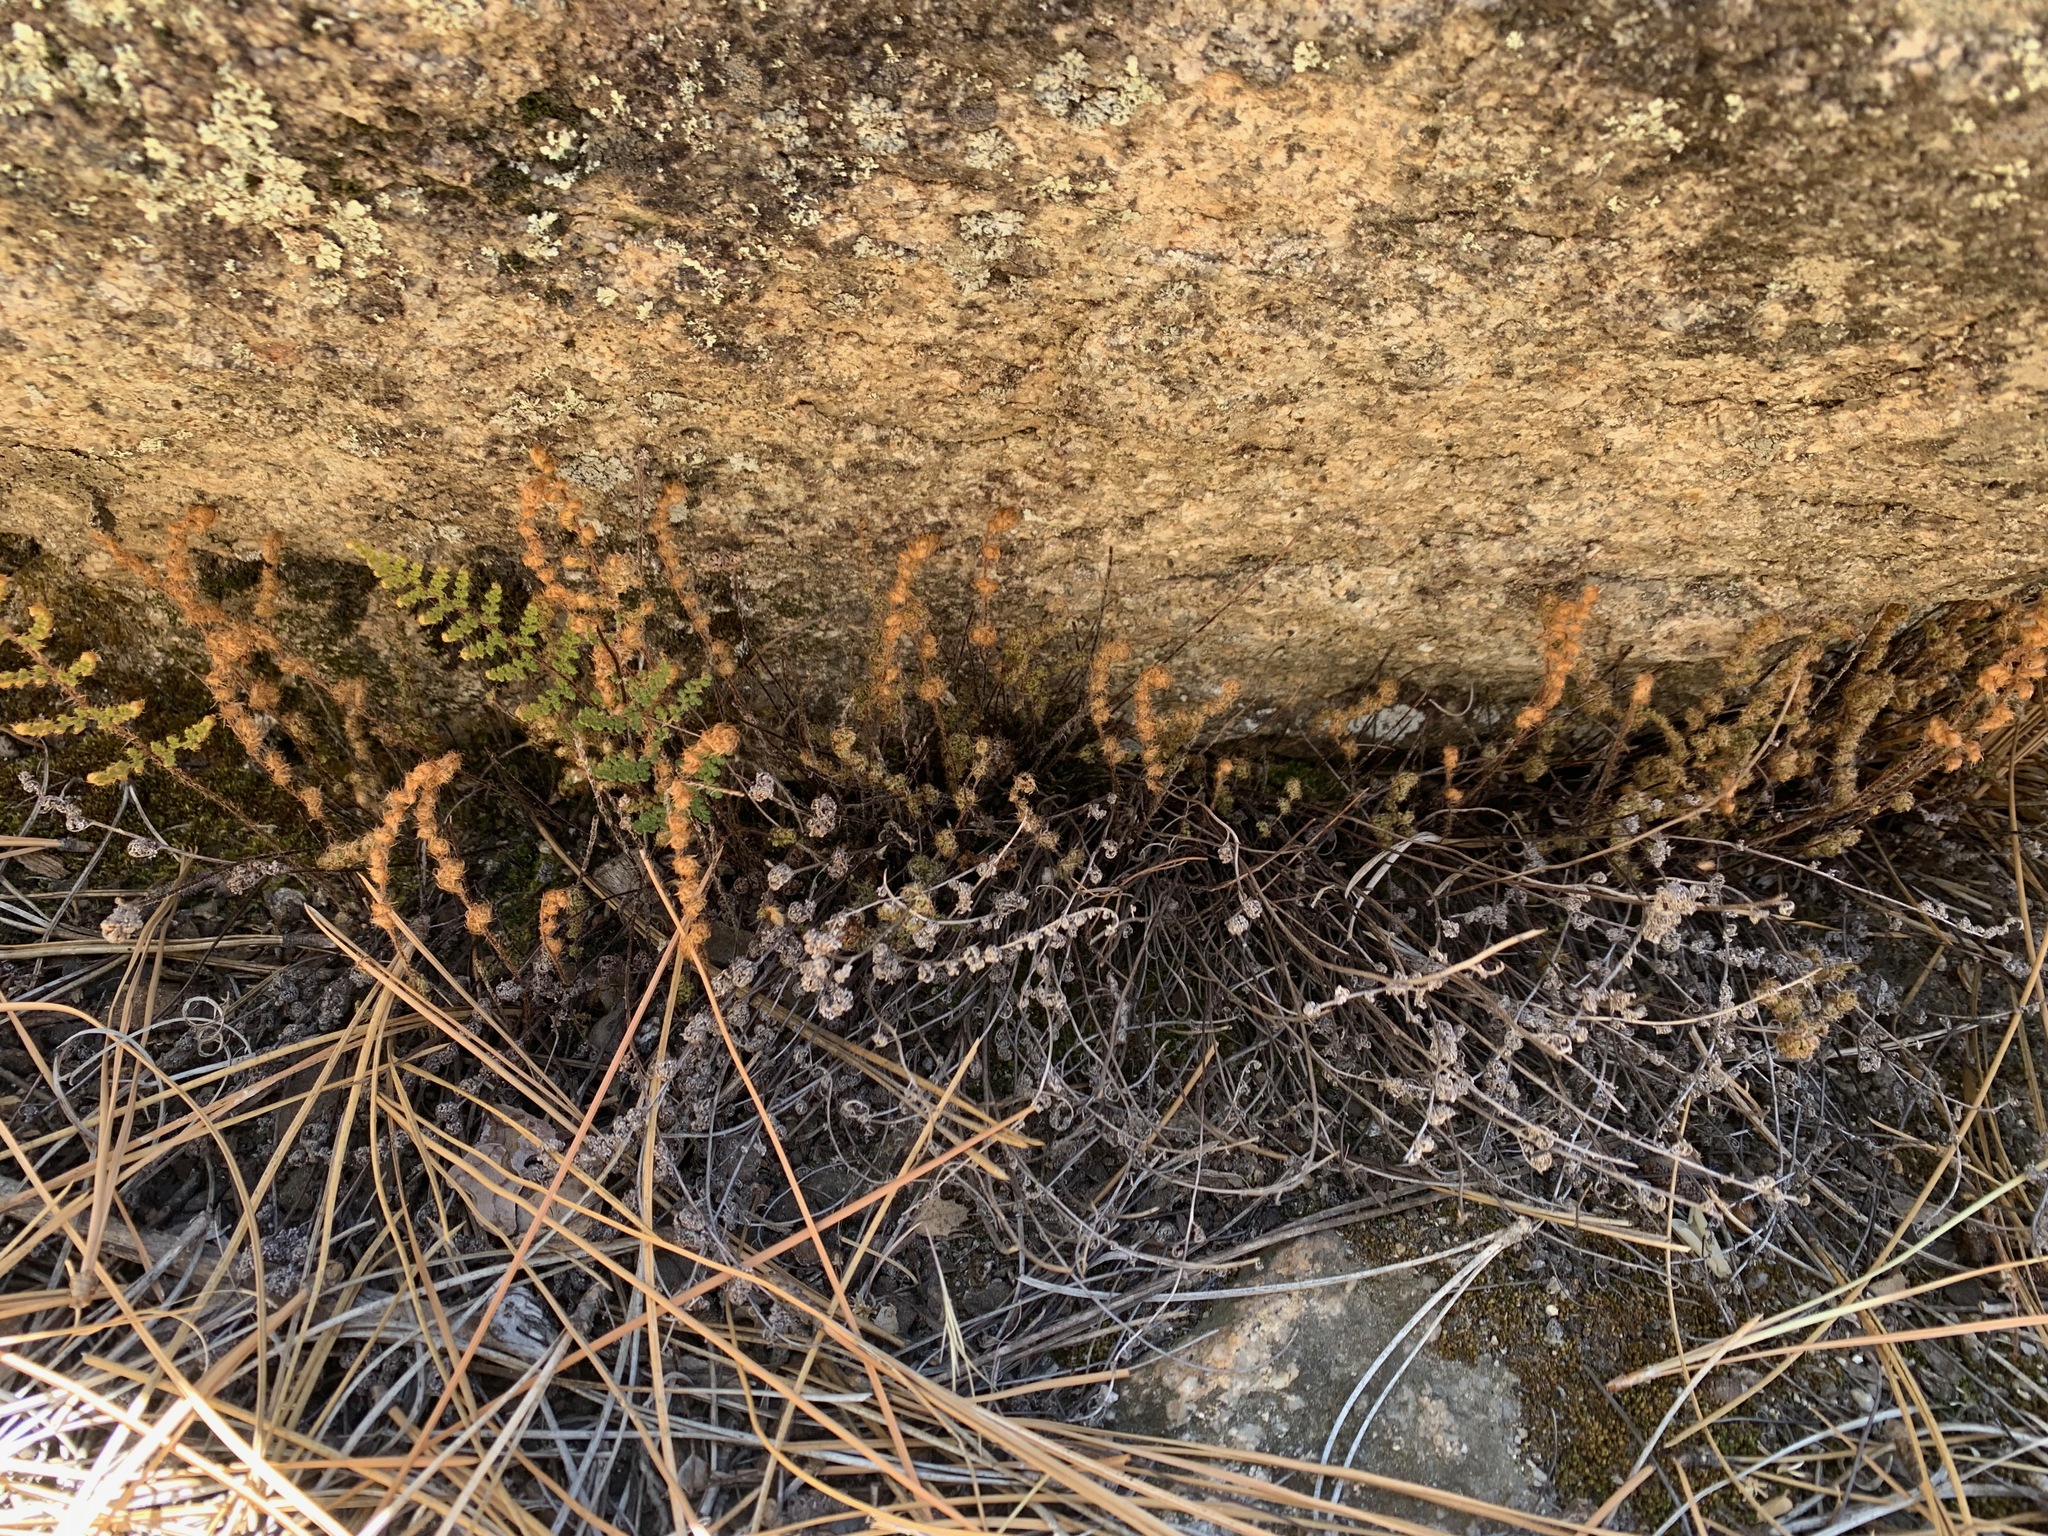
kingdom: Plantae
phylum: Tracheophyta
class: Polypodiopsida
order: Polypodiales
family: Pteridaceae
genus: Pellaea
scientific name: Pellaea mucronata
